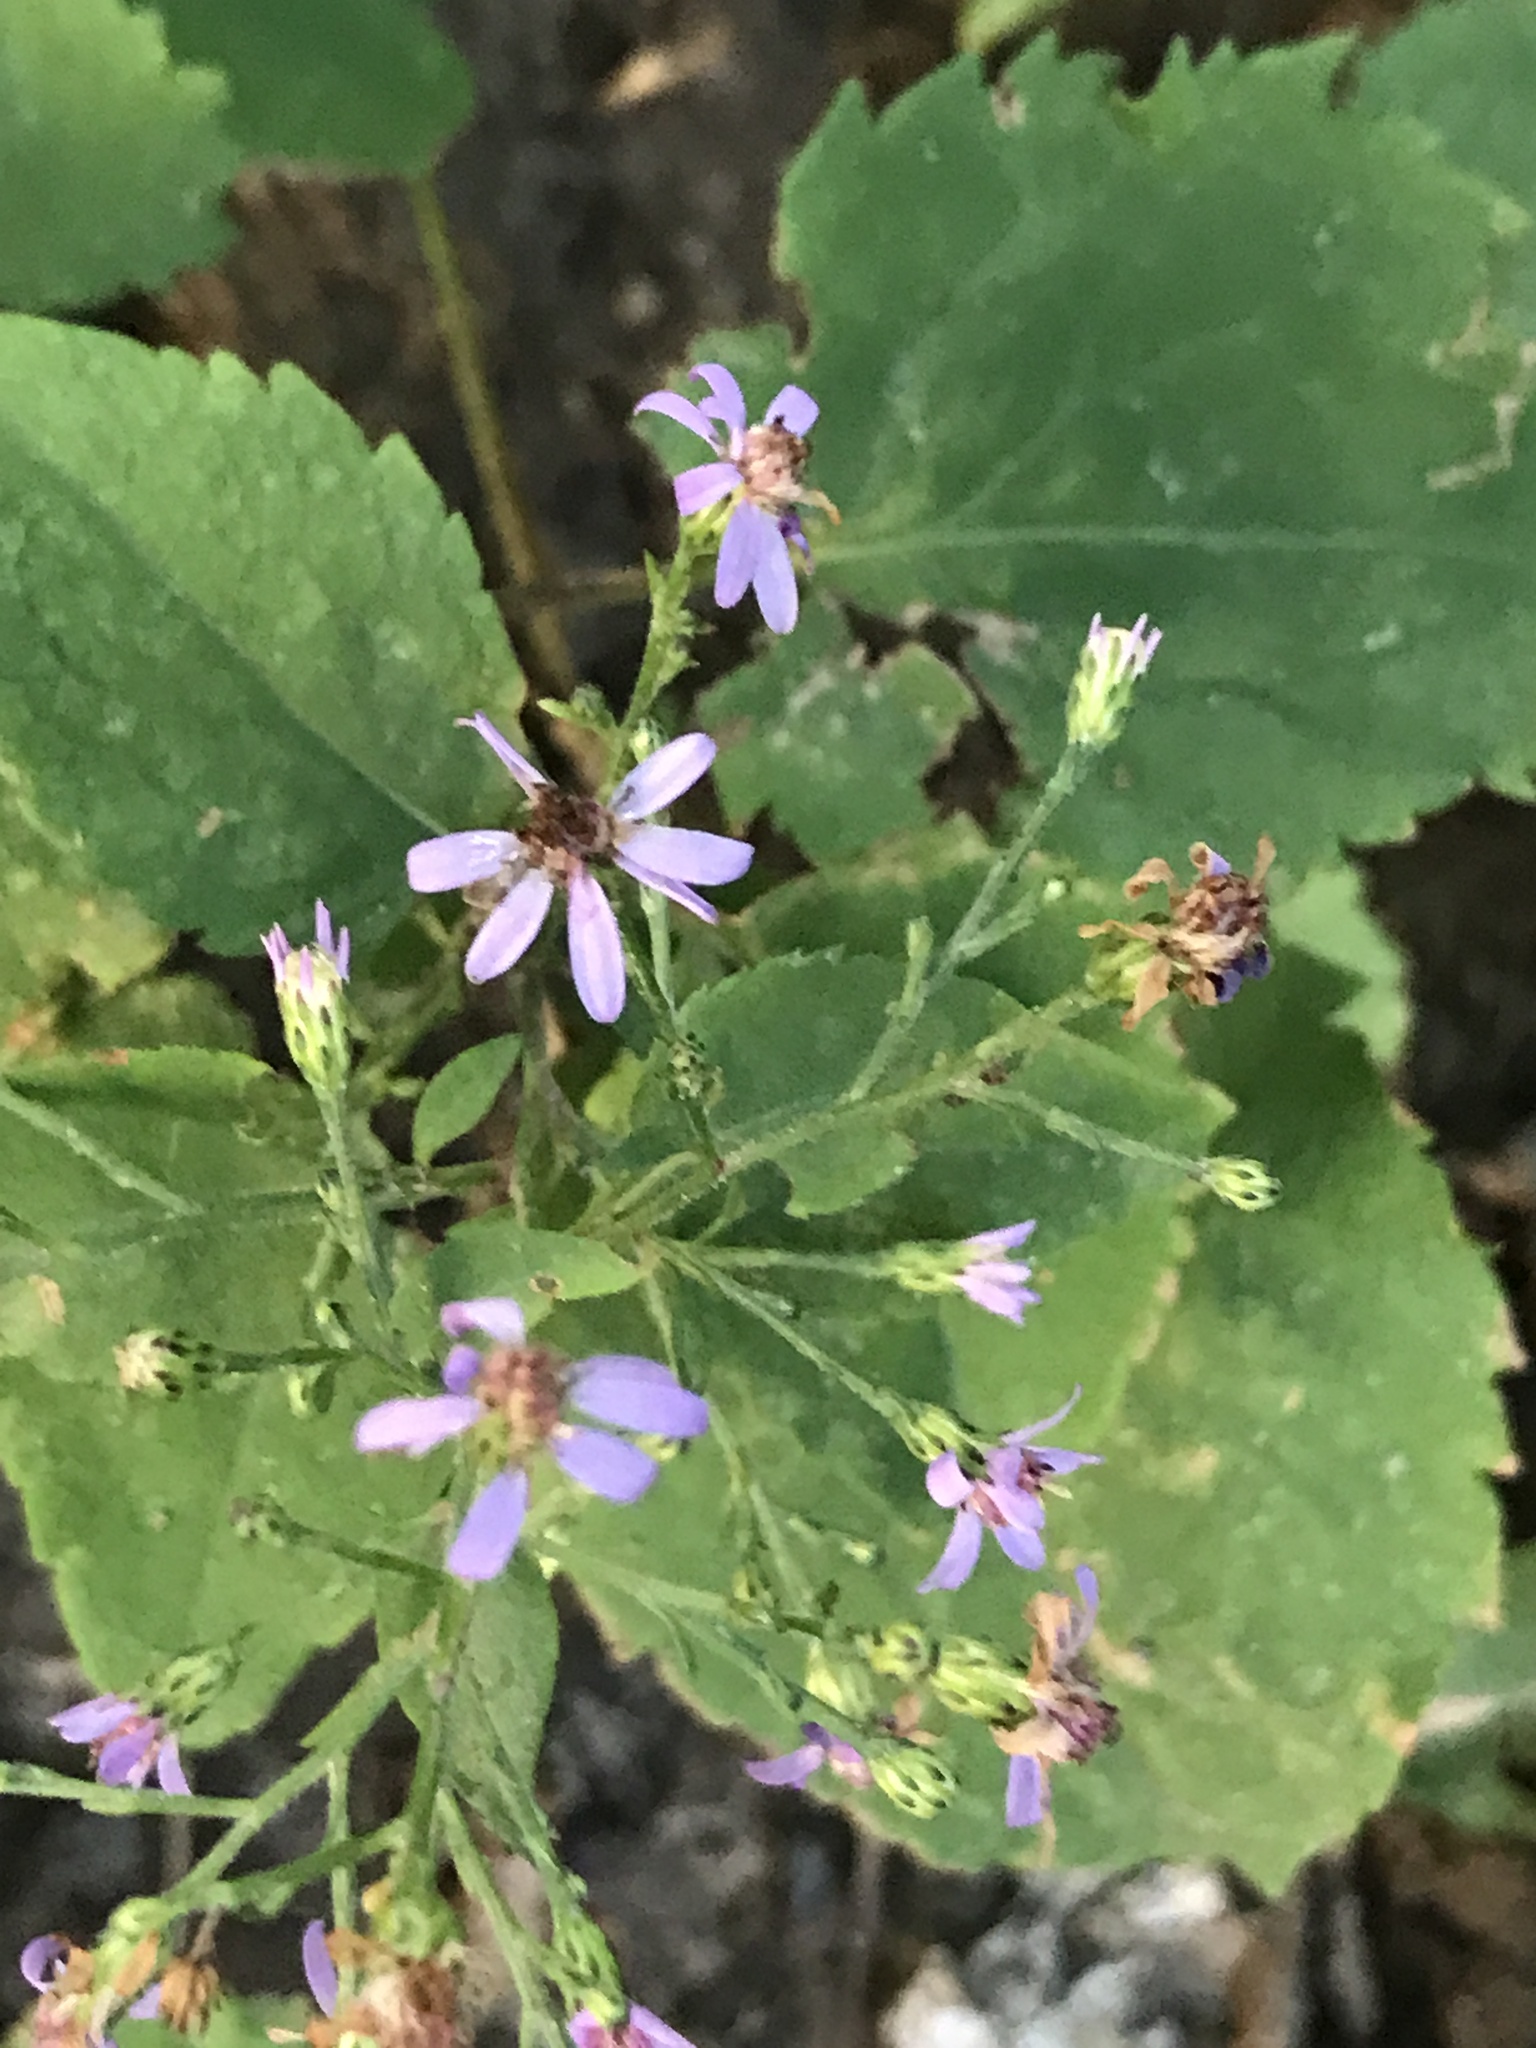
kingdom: Plantae
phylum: Tracheophyta
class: Magnoliopsida
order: Asterales
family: Asteraceae
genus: Symphyotrichum
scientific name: Symphyotrichum cordifolium
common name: Beeweed
